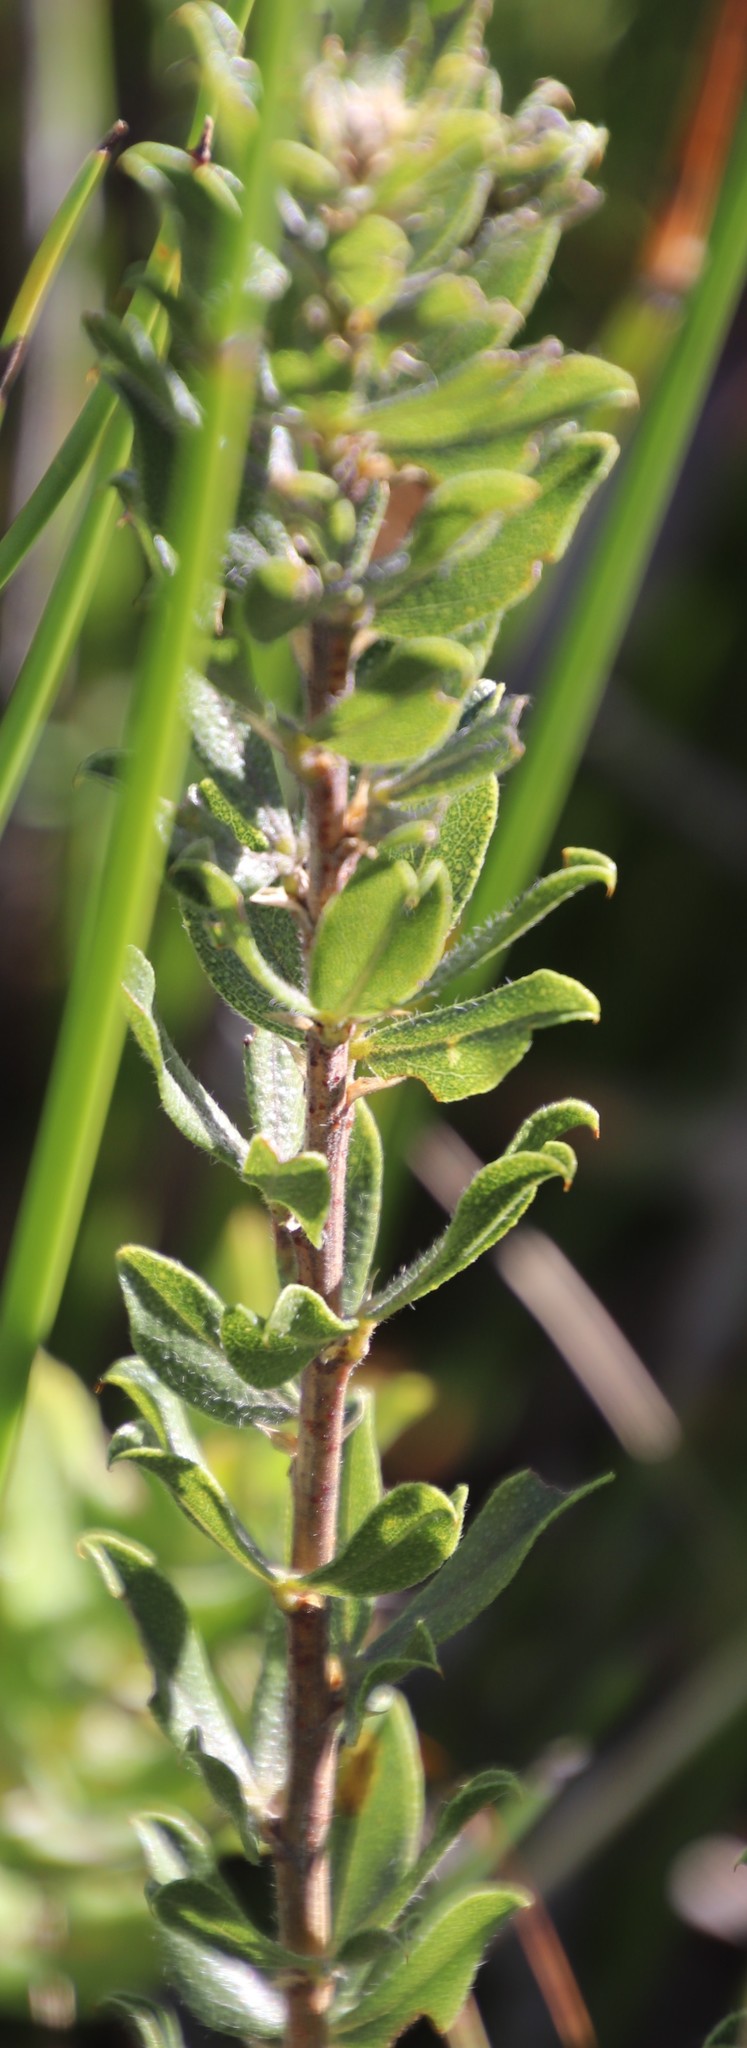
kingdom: Plantae
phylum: Tracheophyta
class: Magnoliopsida
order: Fabales
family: Fabaceae
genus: Psoralea
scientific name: Psoralea obliqua
